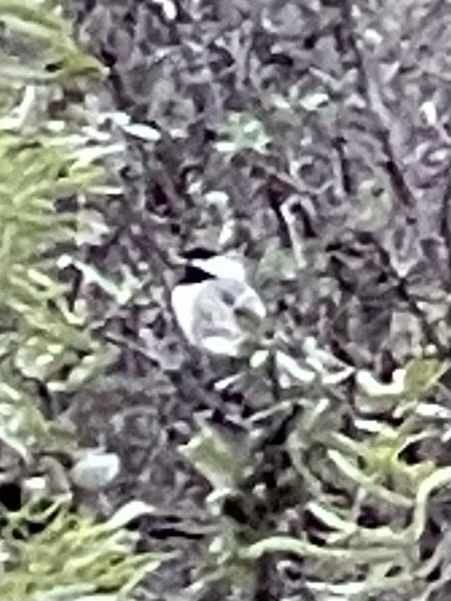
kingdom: Animalia
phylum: Chordata
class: Aves
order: Passeriformes
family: Paridae
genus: Poecile
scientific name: Poecile carolinensis
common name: Carolina chickadee
